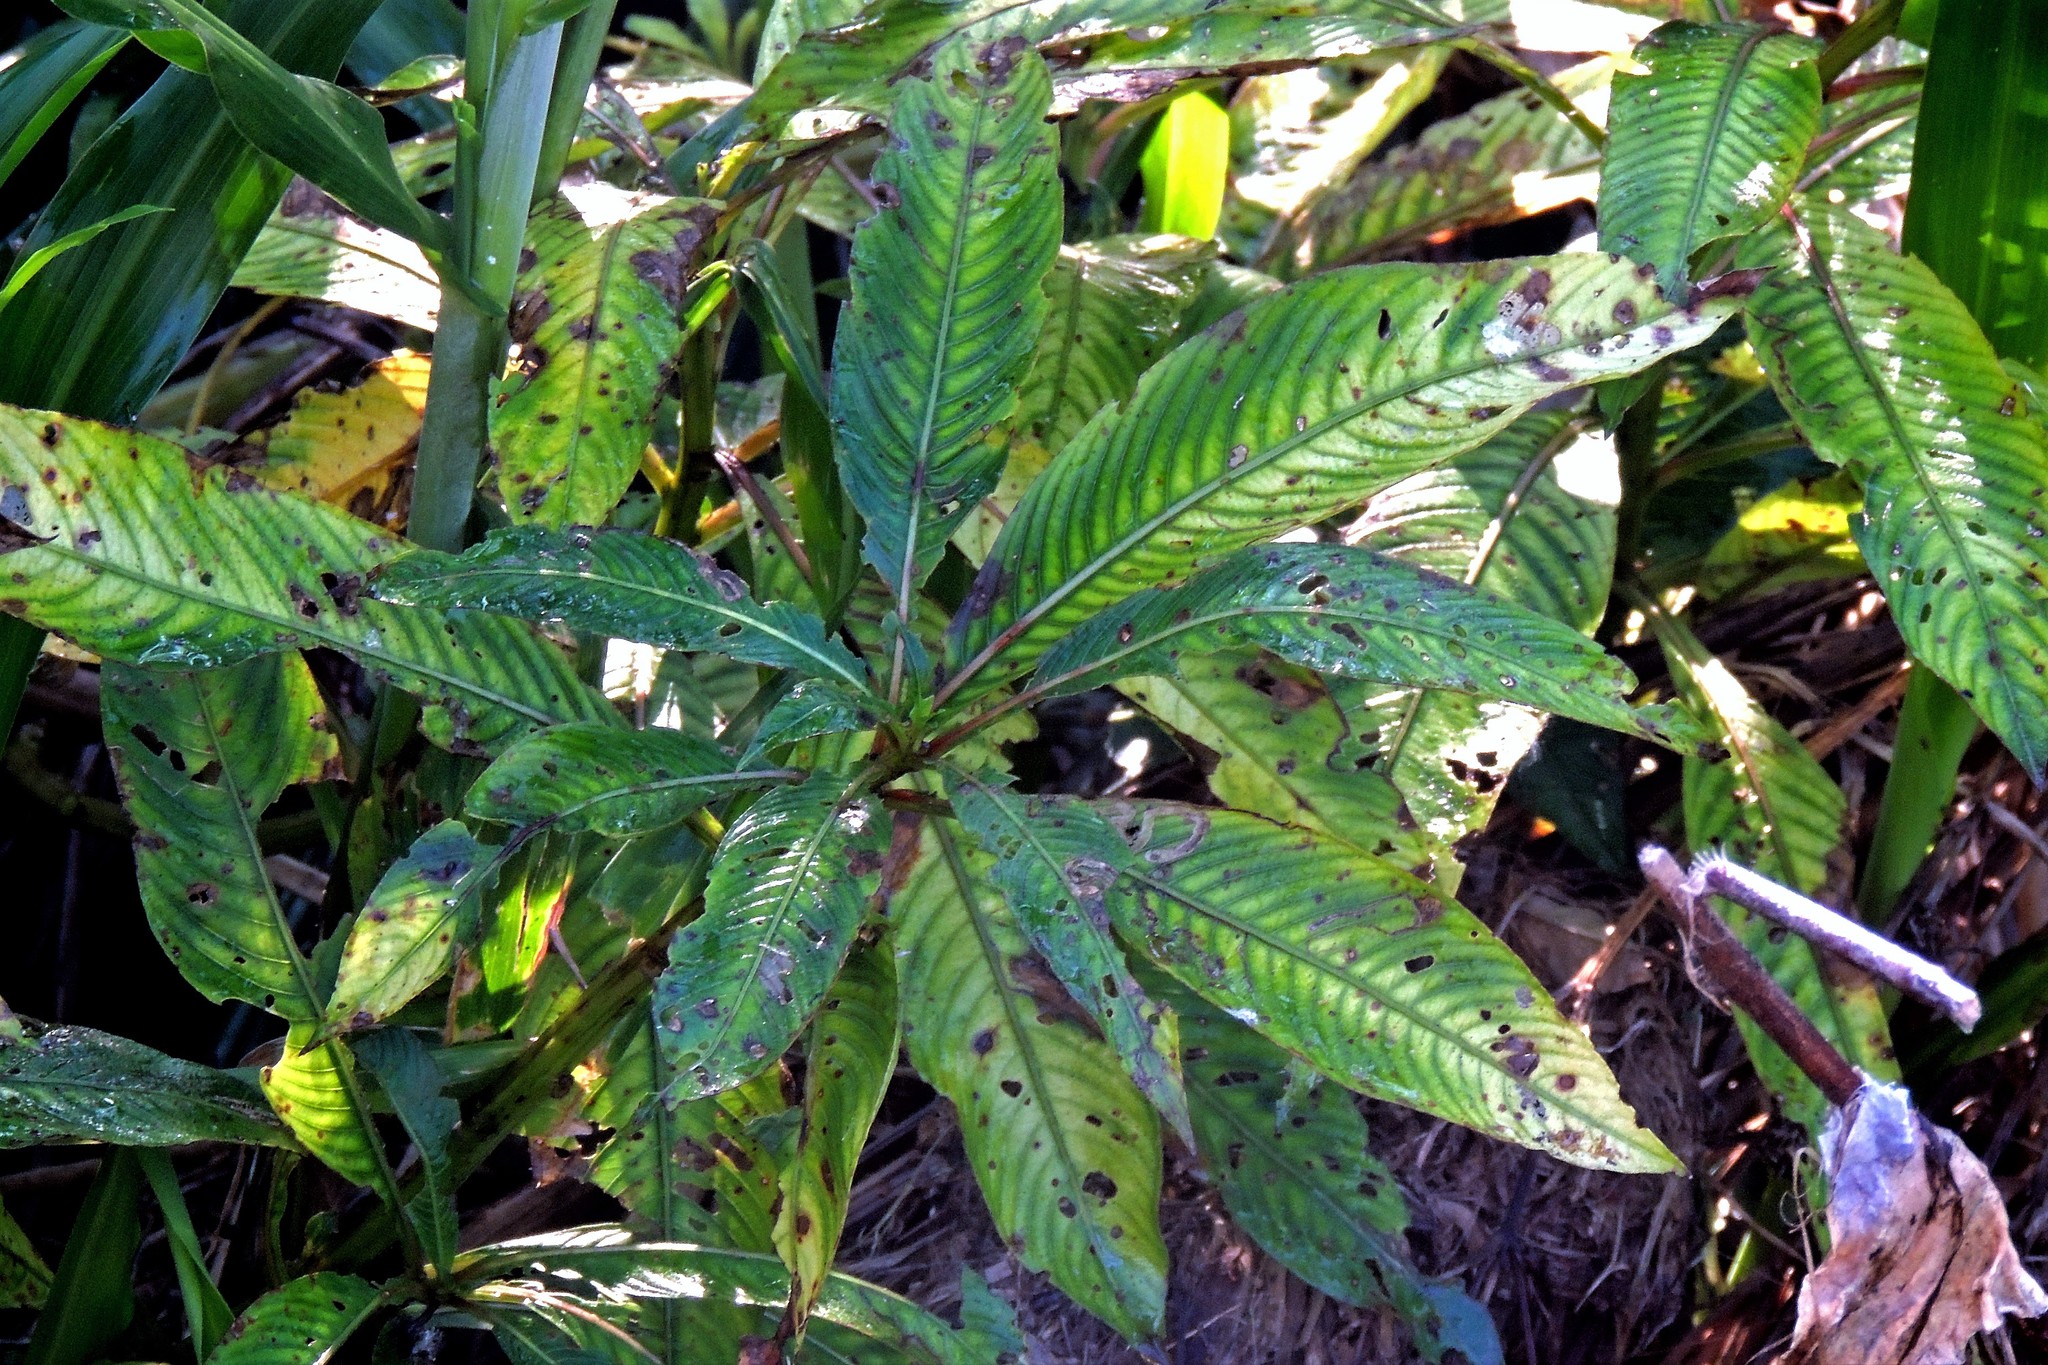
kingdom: Plantae
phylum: Tracheophyta
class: Magnoliopsida
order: Myrtales
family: Onagraceae
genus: Ludwigia
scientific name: Ludwigia elegans
